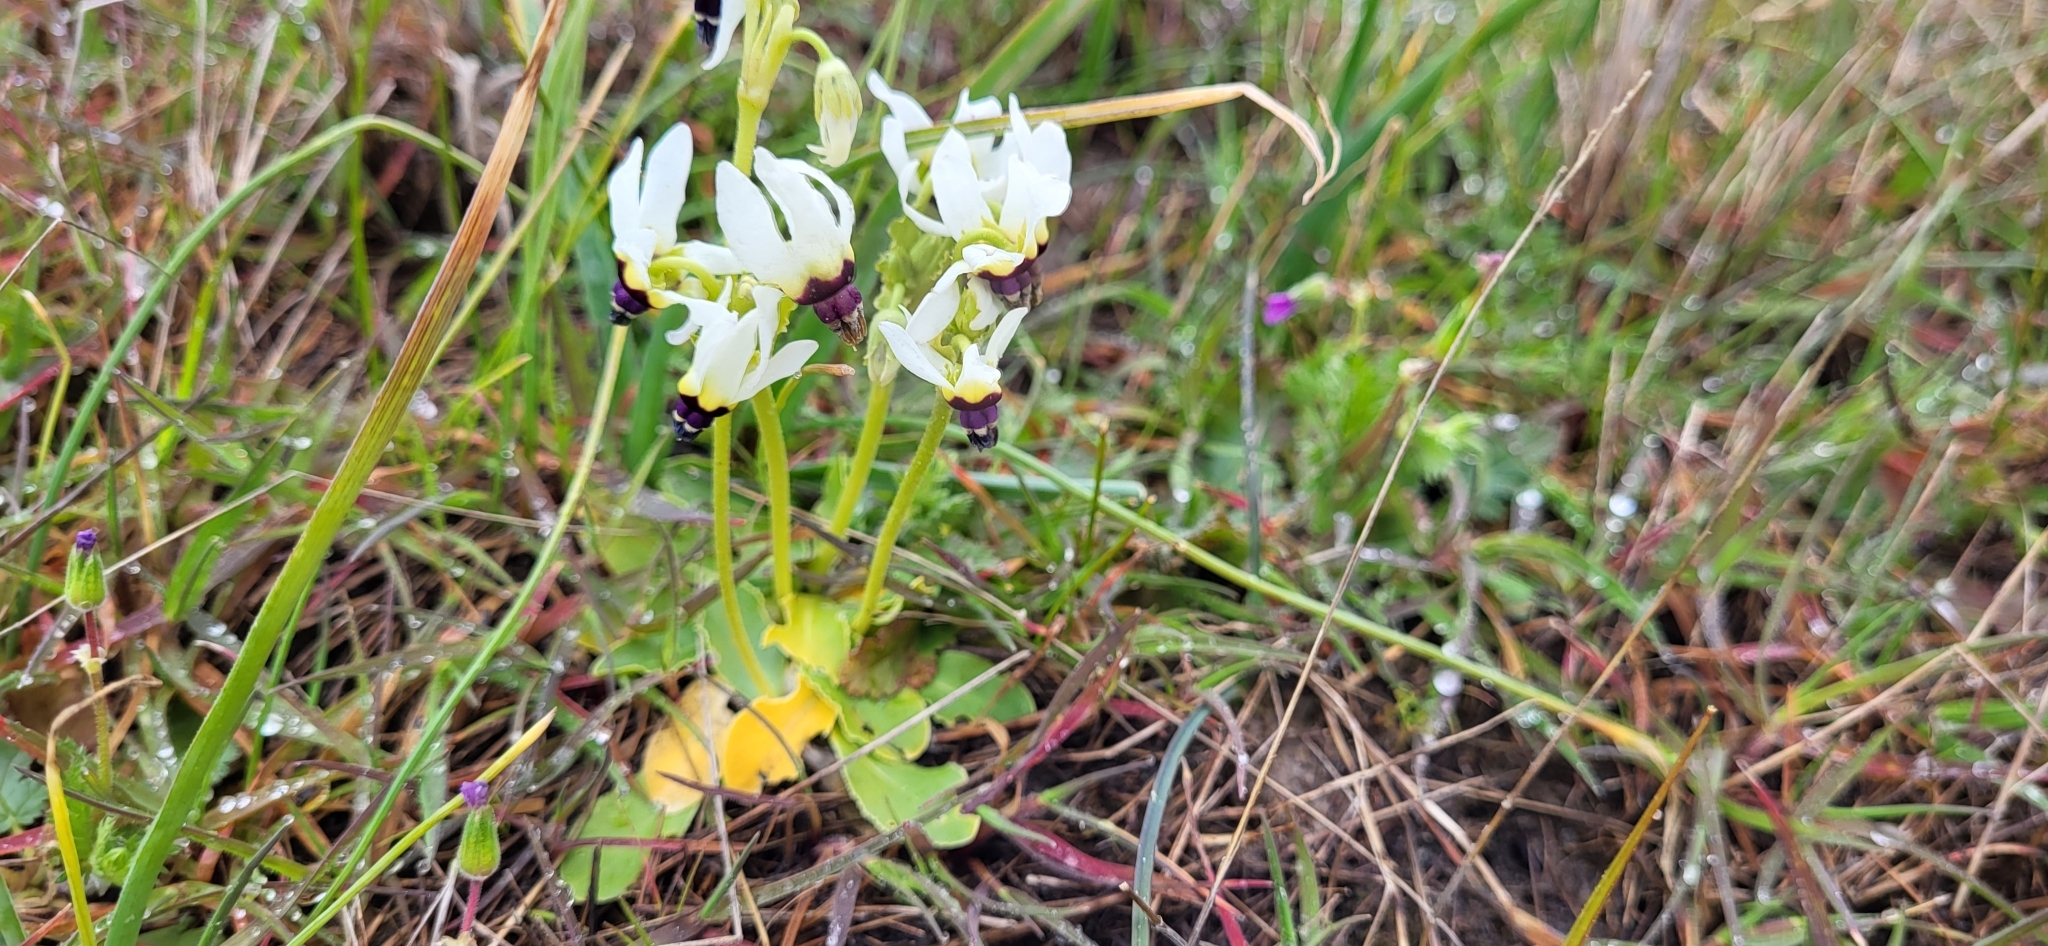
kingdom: Plantae
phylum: Tracheophyta
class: Magnoliopsida
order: Ericales
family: Primulaceae
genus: Dodecatheon
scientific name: Dodecatheon clevelandii
